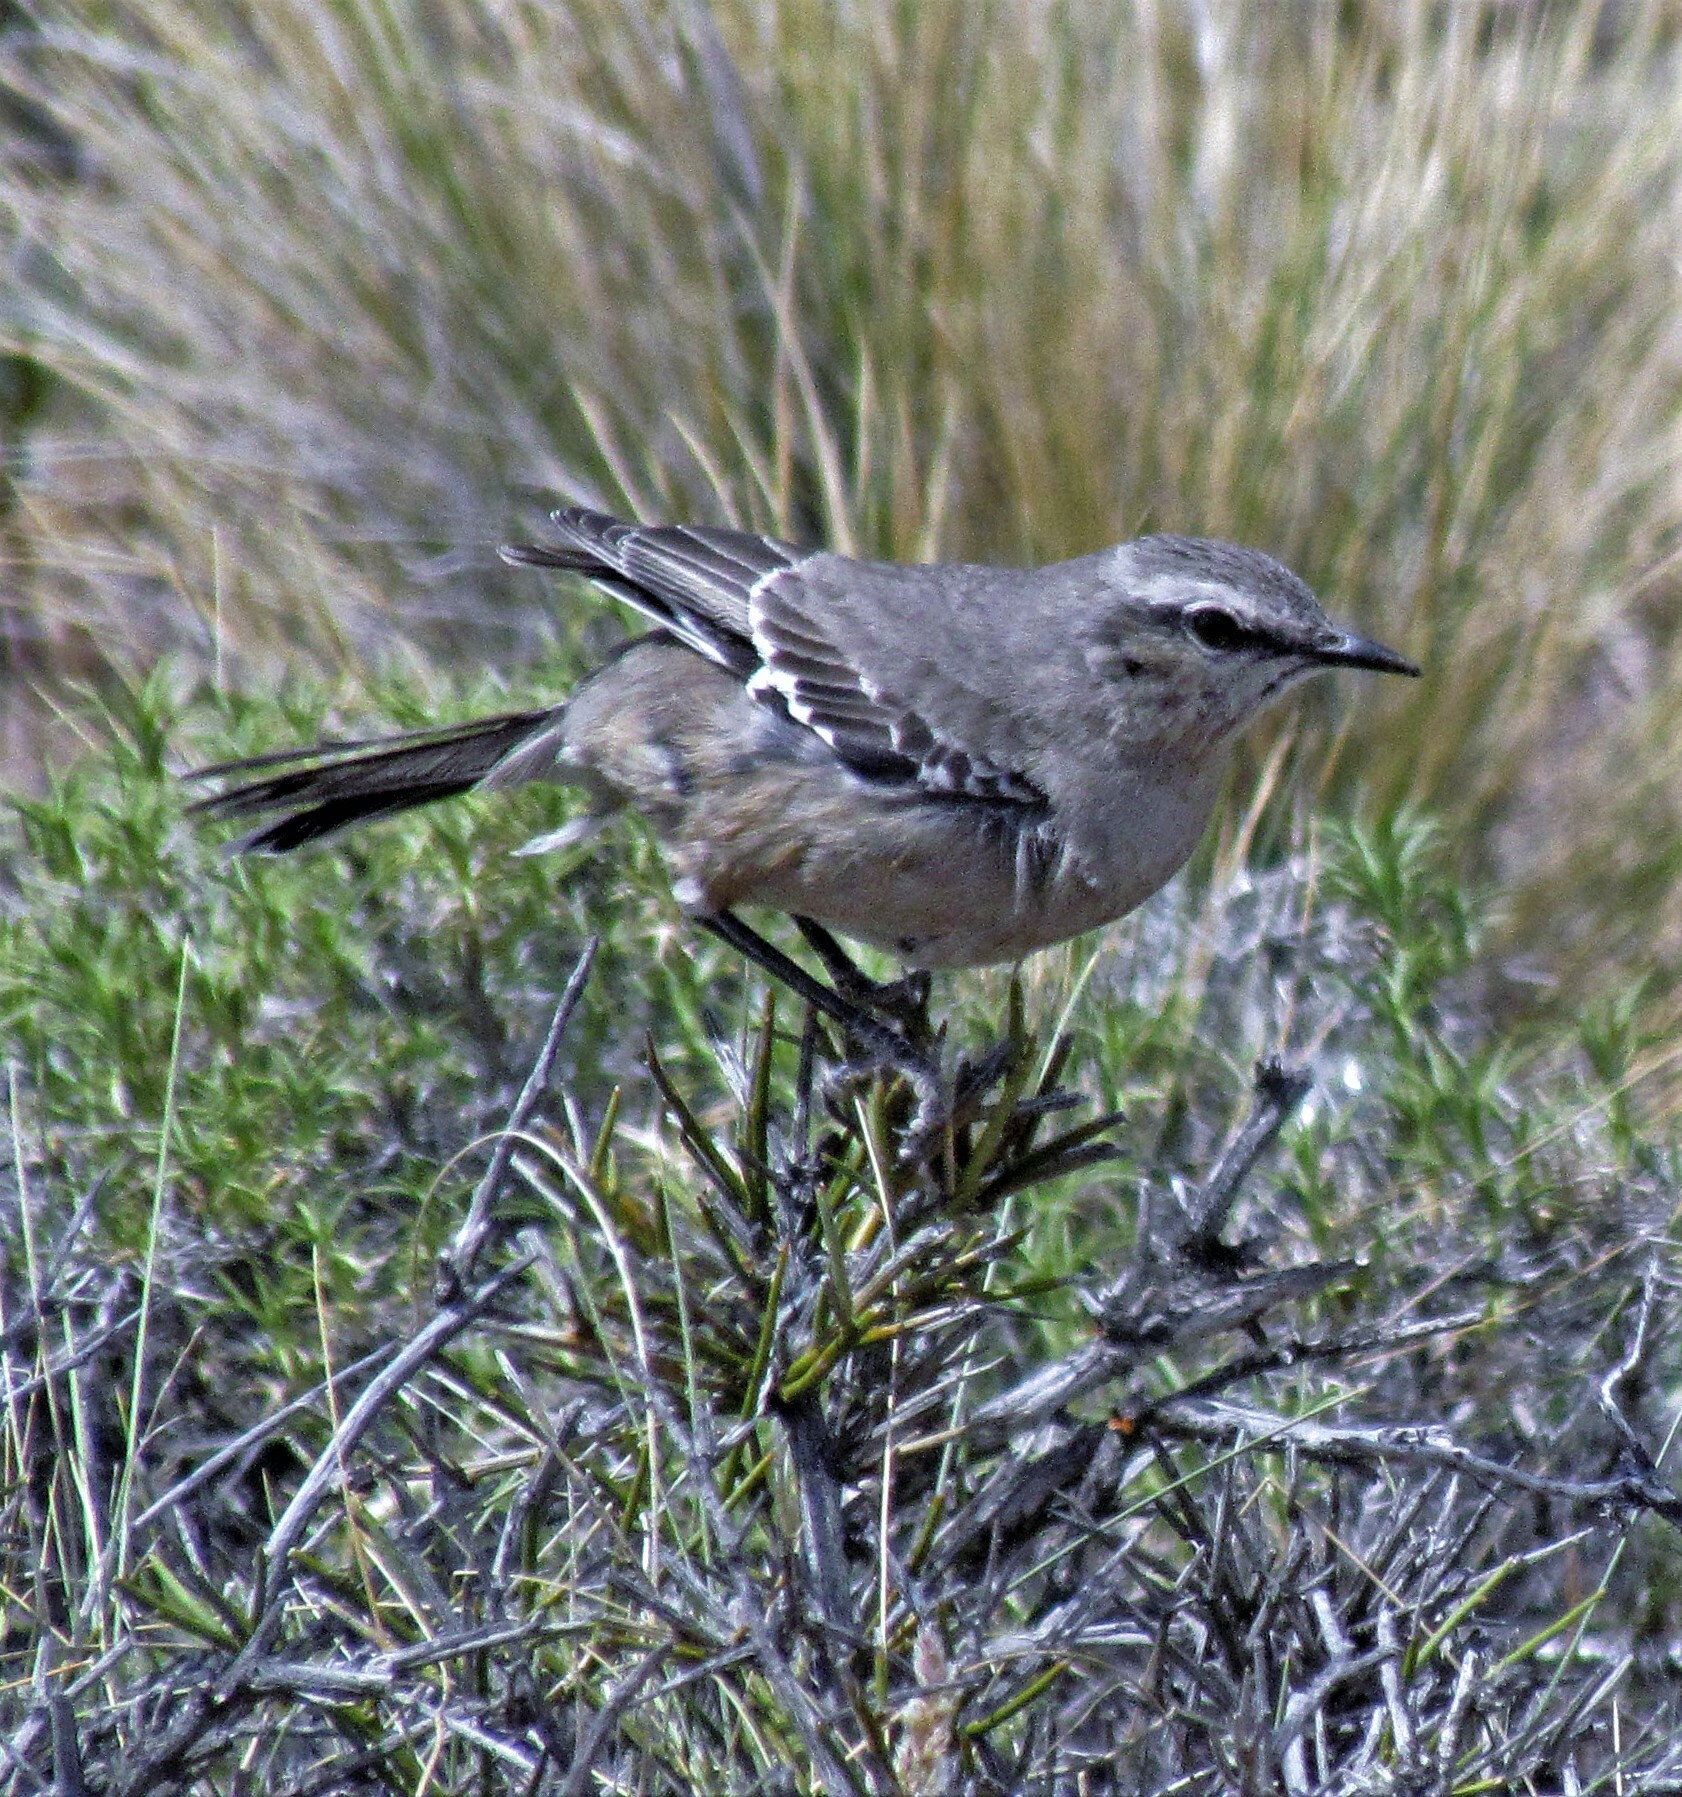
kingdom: Animalia
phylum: Chordata
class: Aves
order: Passeriformes
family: Mimidae
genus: Mimus
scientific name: Mimus patagonicus
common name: Patagonian mockingbird
